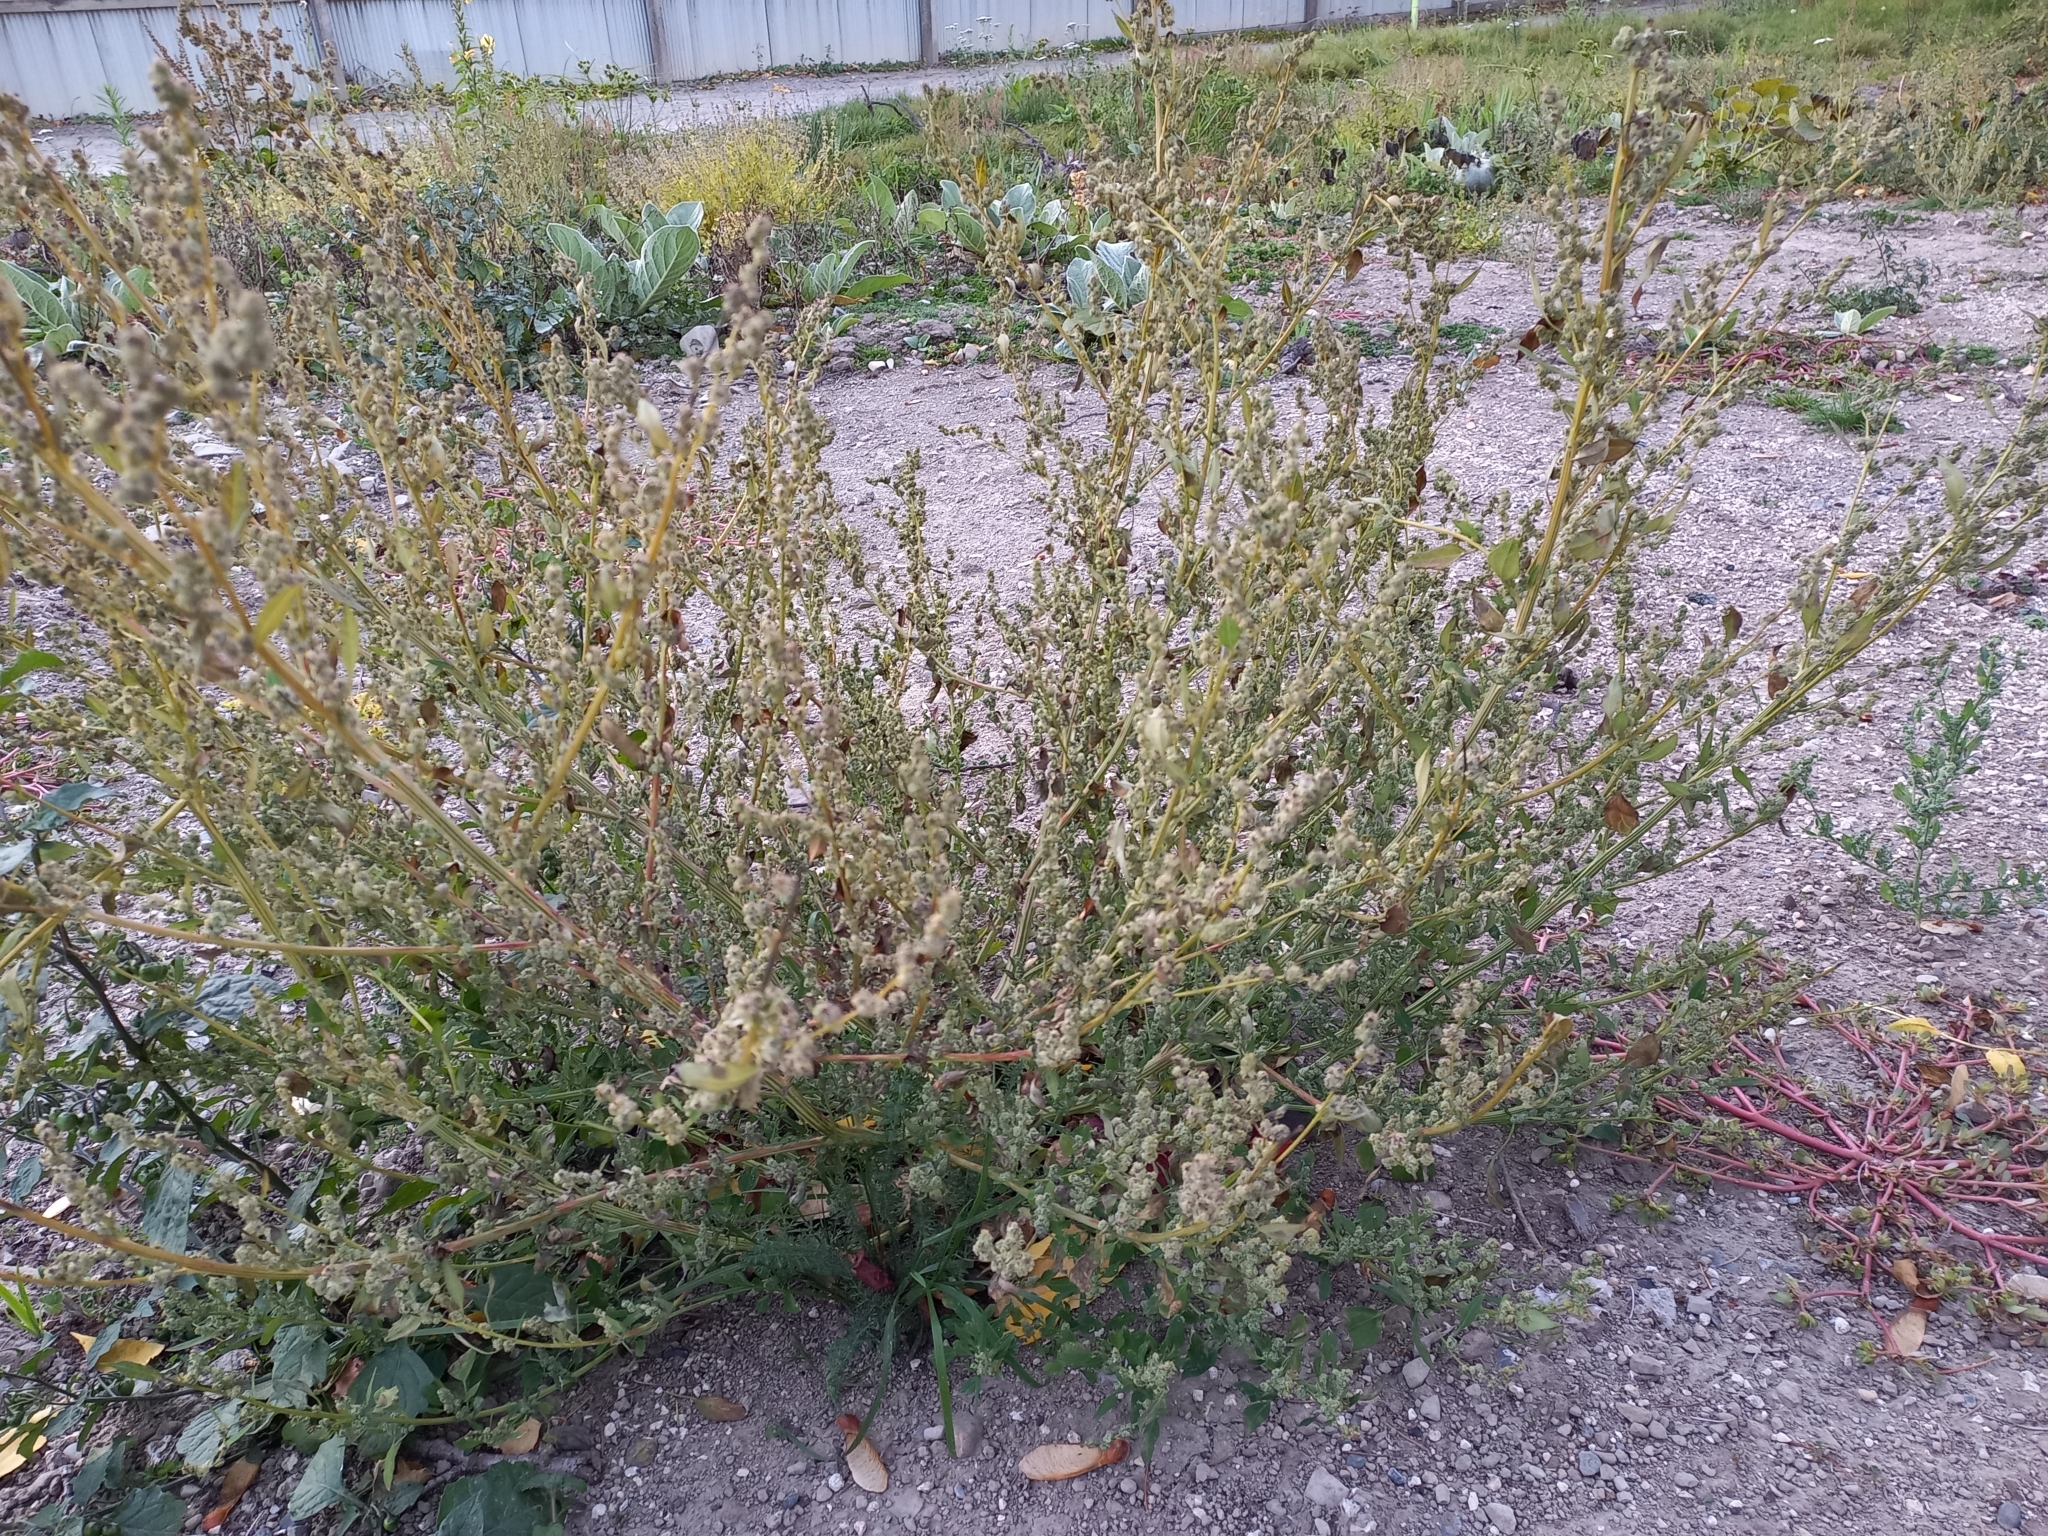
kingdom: Plantae
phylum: Tracheophyta
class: Magnoliopsida
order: Caryophyllales
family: Amaranthaceae
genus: Chenopodium
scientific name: Chenopodium album
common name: Fat-hen
